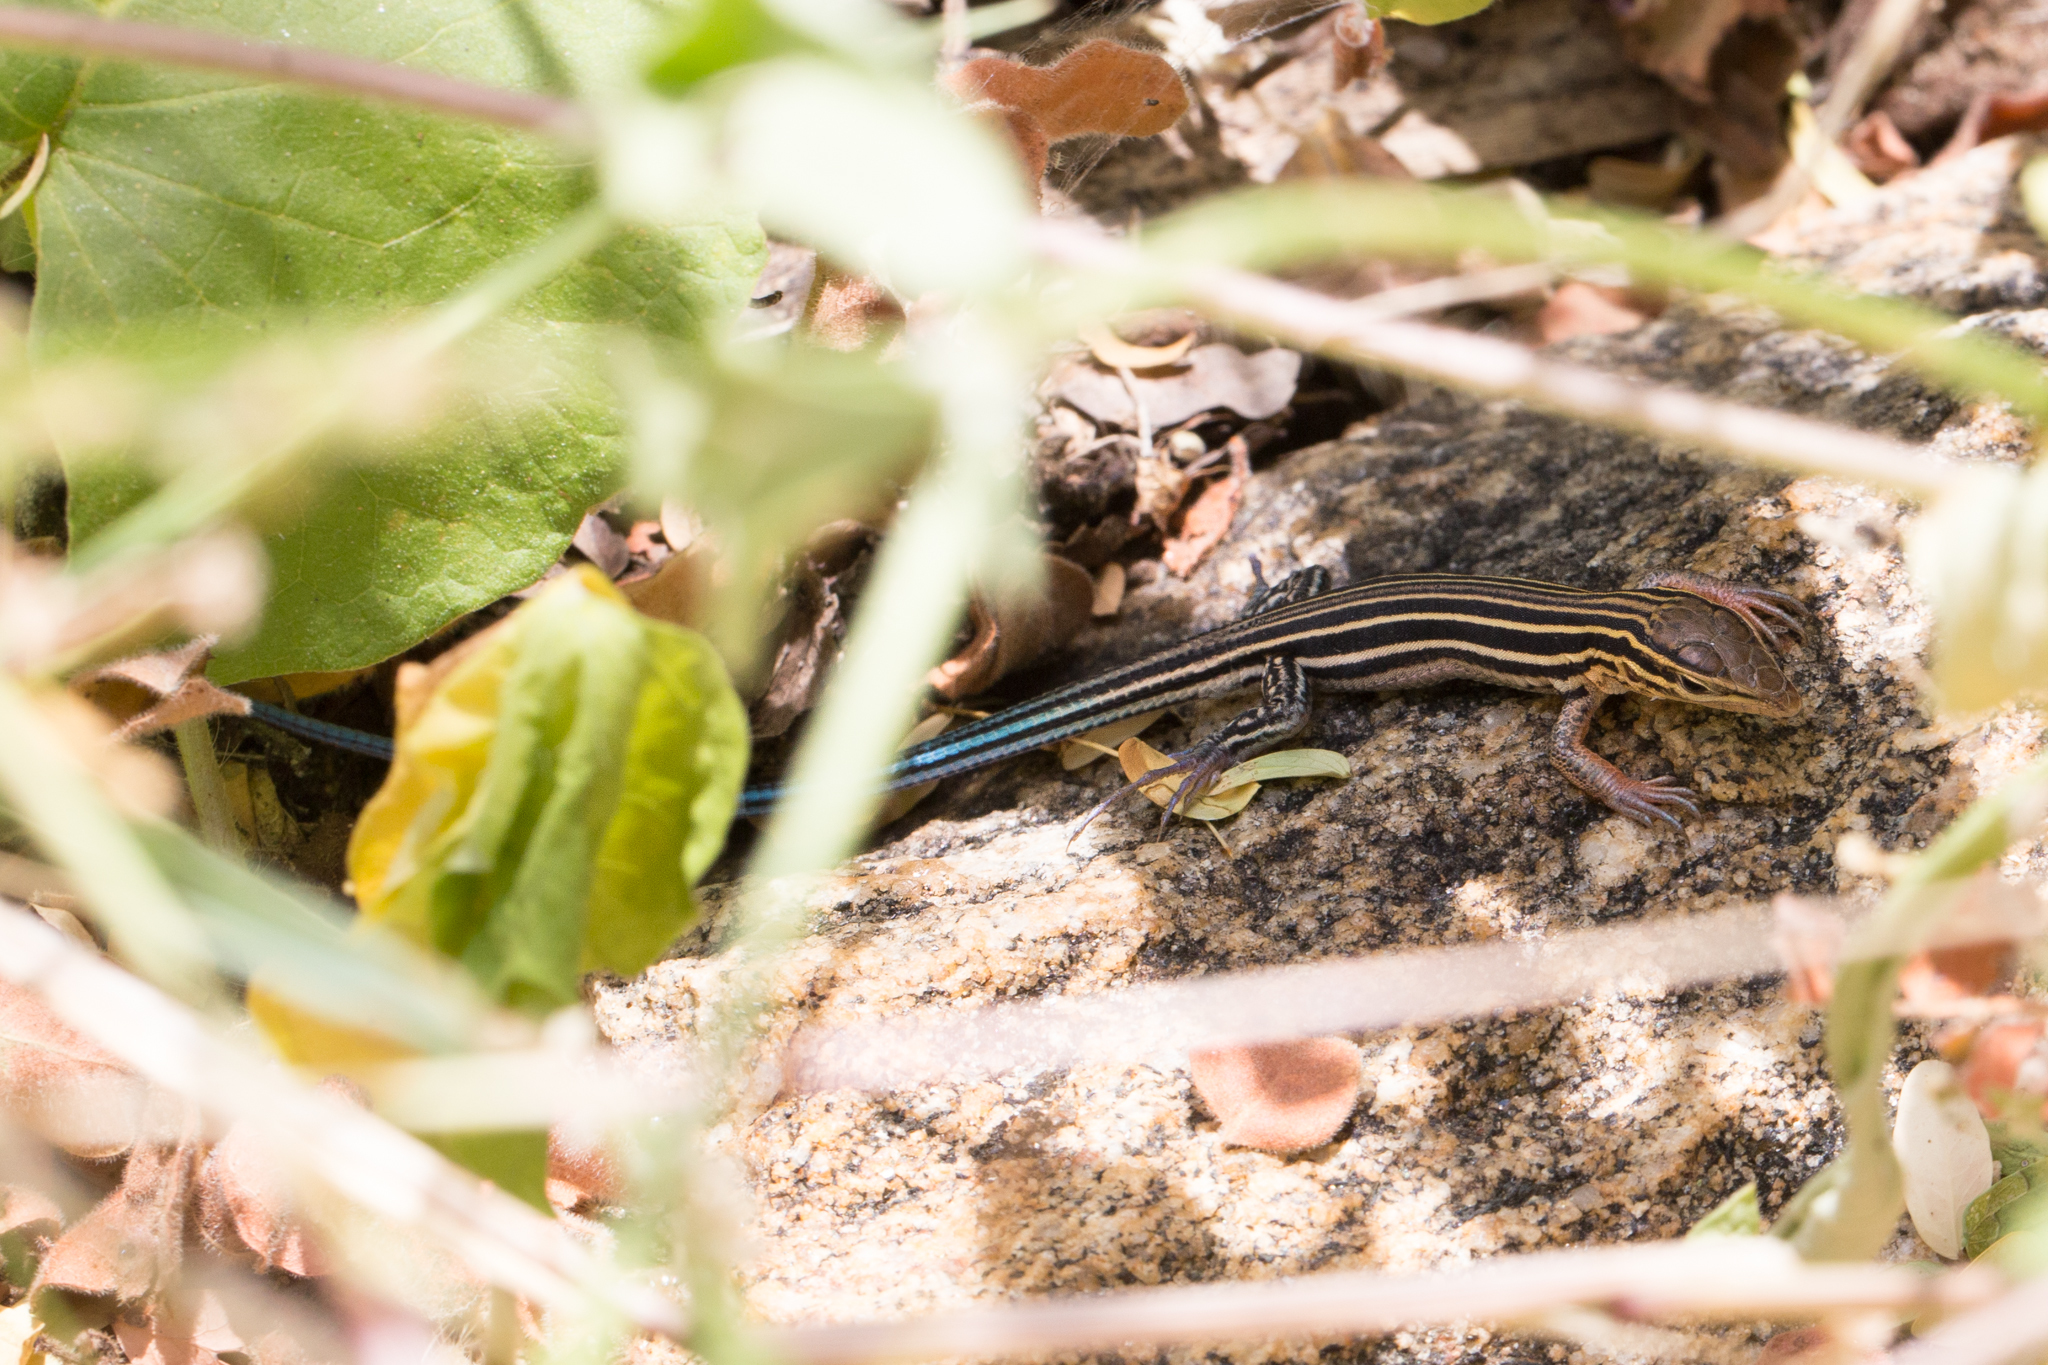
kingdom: Animalia
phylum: Chordata
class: Squamata
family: Teiidae
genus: Aspidoscelis
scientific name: Aspidoscelis hyperythrus
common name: Orange-throated race-runner
